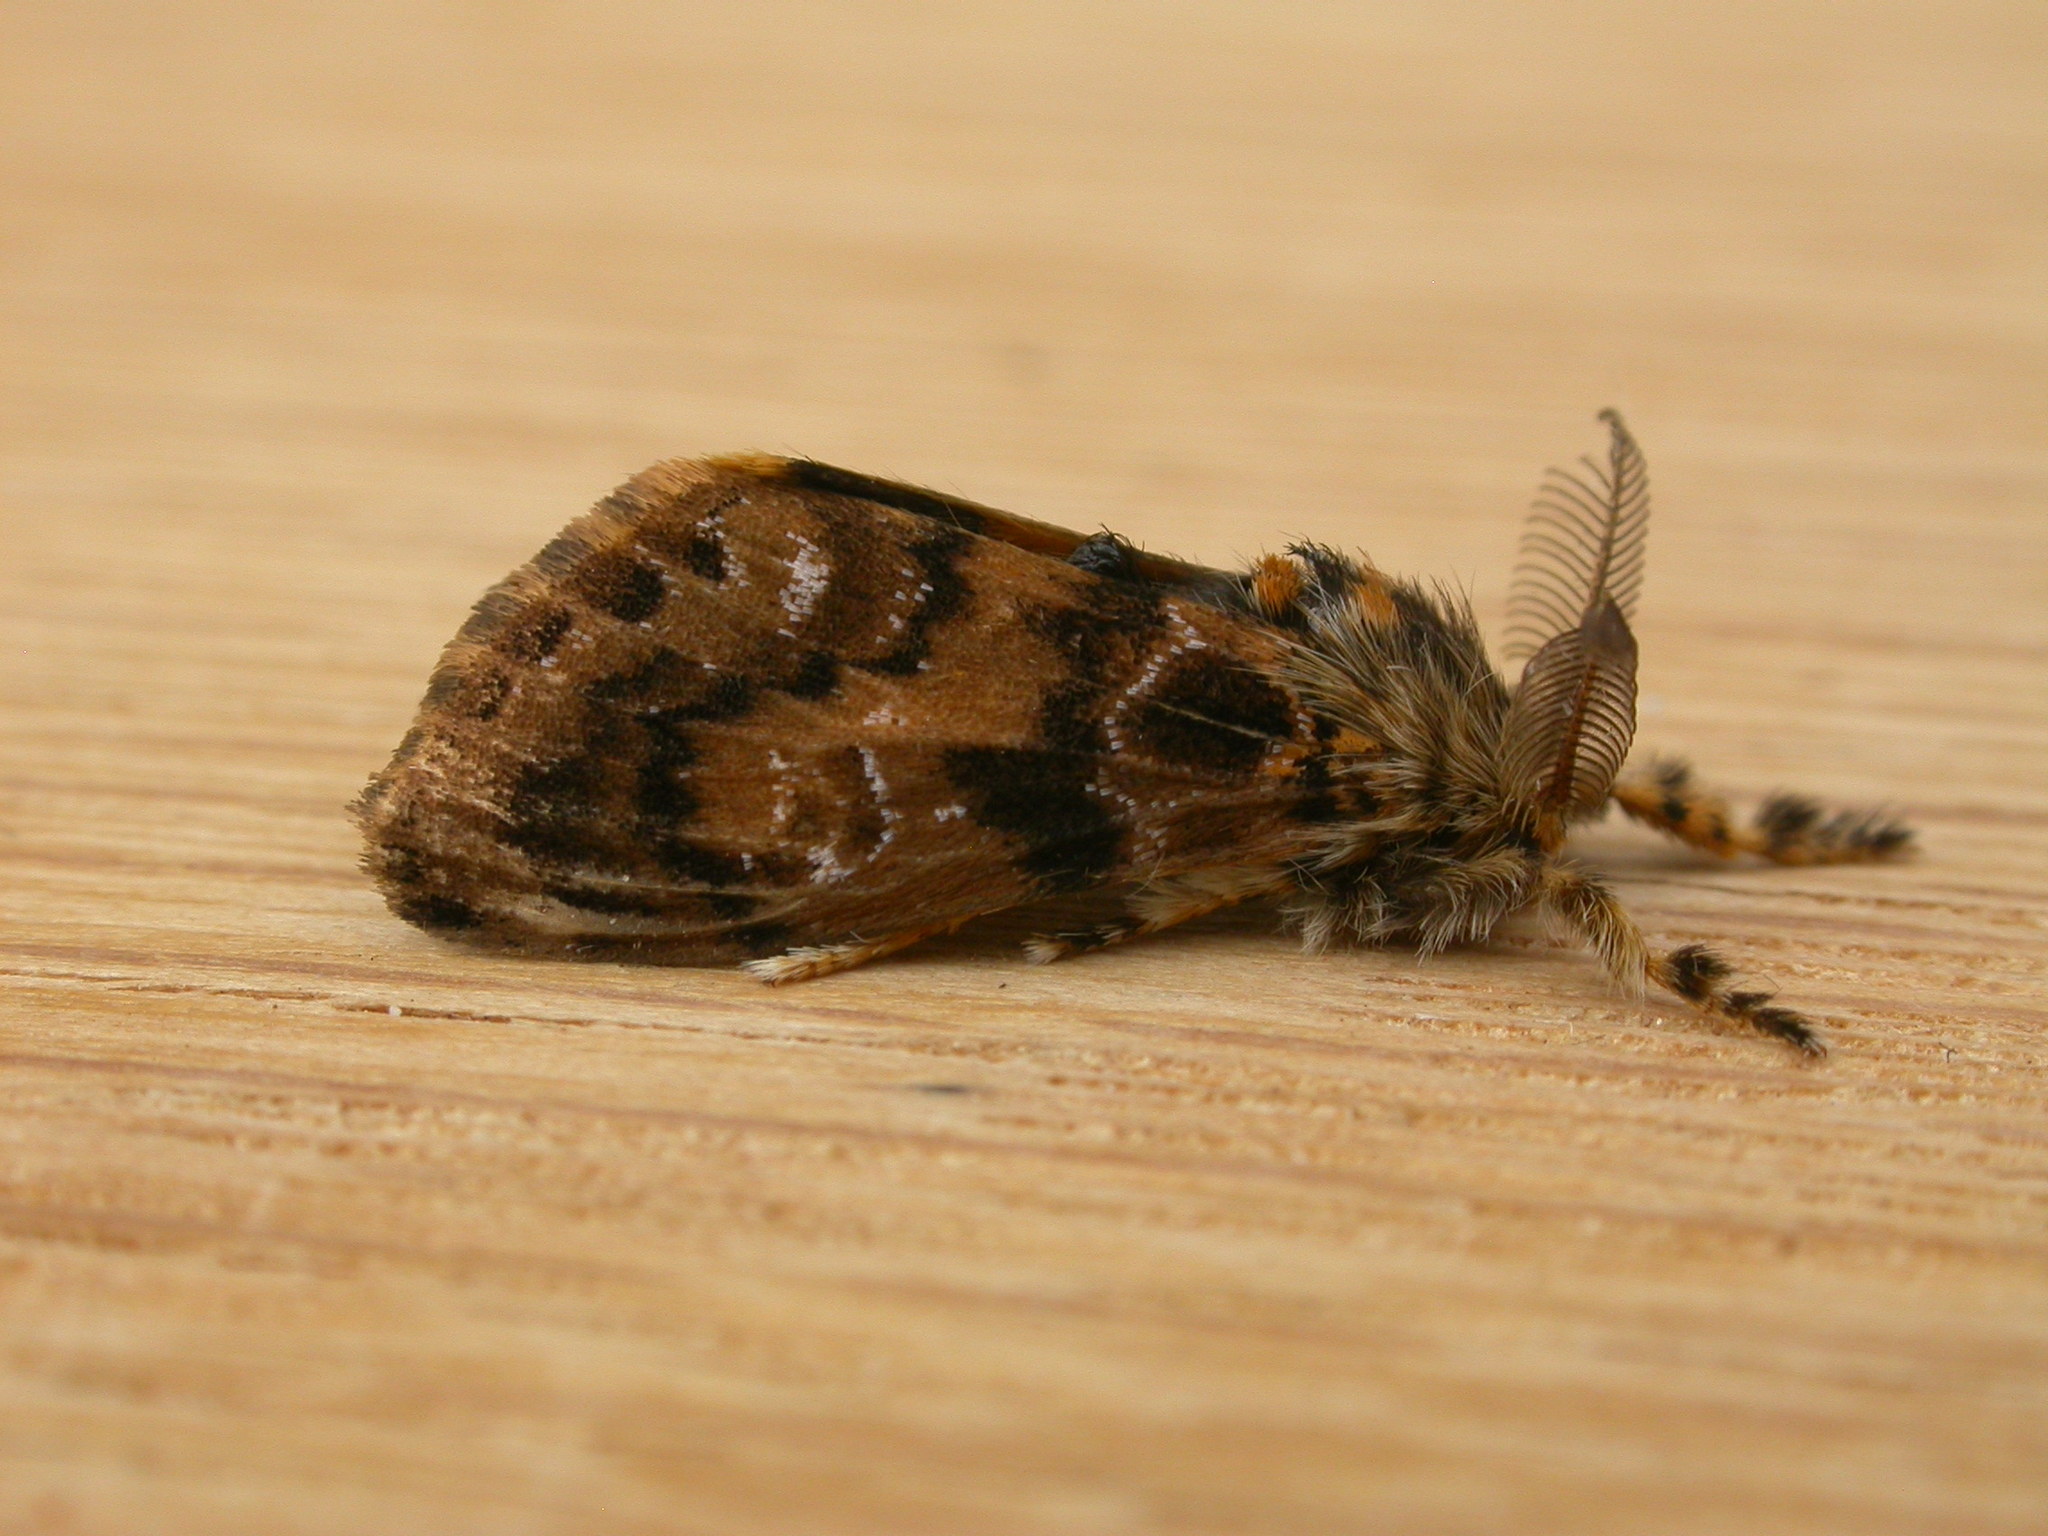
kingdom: Animalia
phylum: Arthropoda
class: Insecta
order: Lepidoptera
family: Erebidae
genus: Orgyia
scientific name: Orgyia
